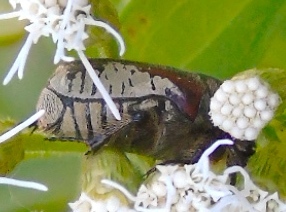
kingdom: Animalia
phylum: Arthropoda
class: Insecta
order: Coleoptera
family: Scarabaeidae
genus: Euphoria
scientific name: Euphoria canescens
